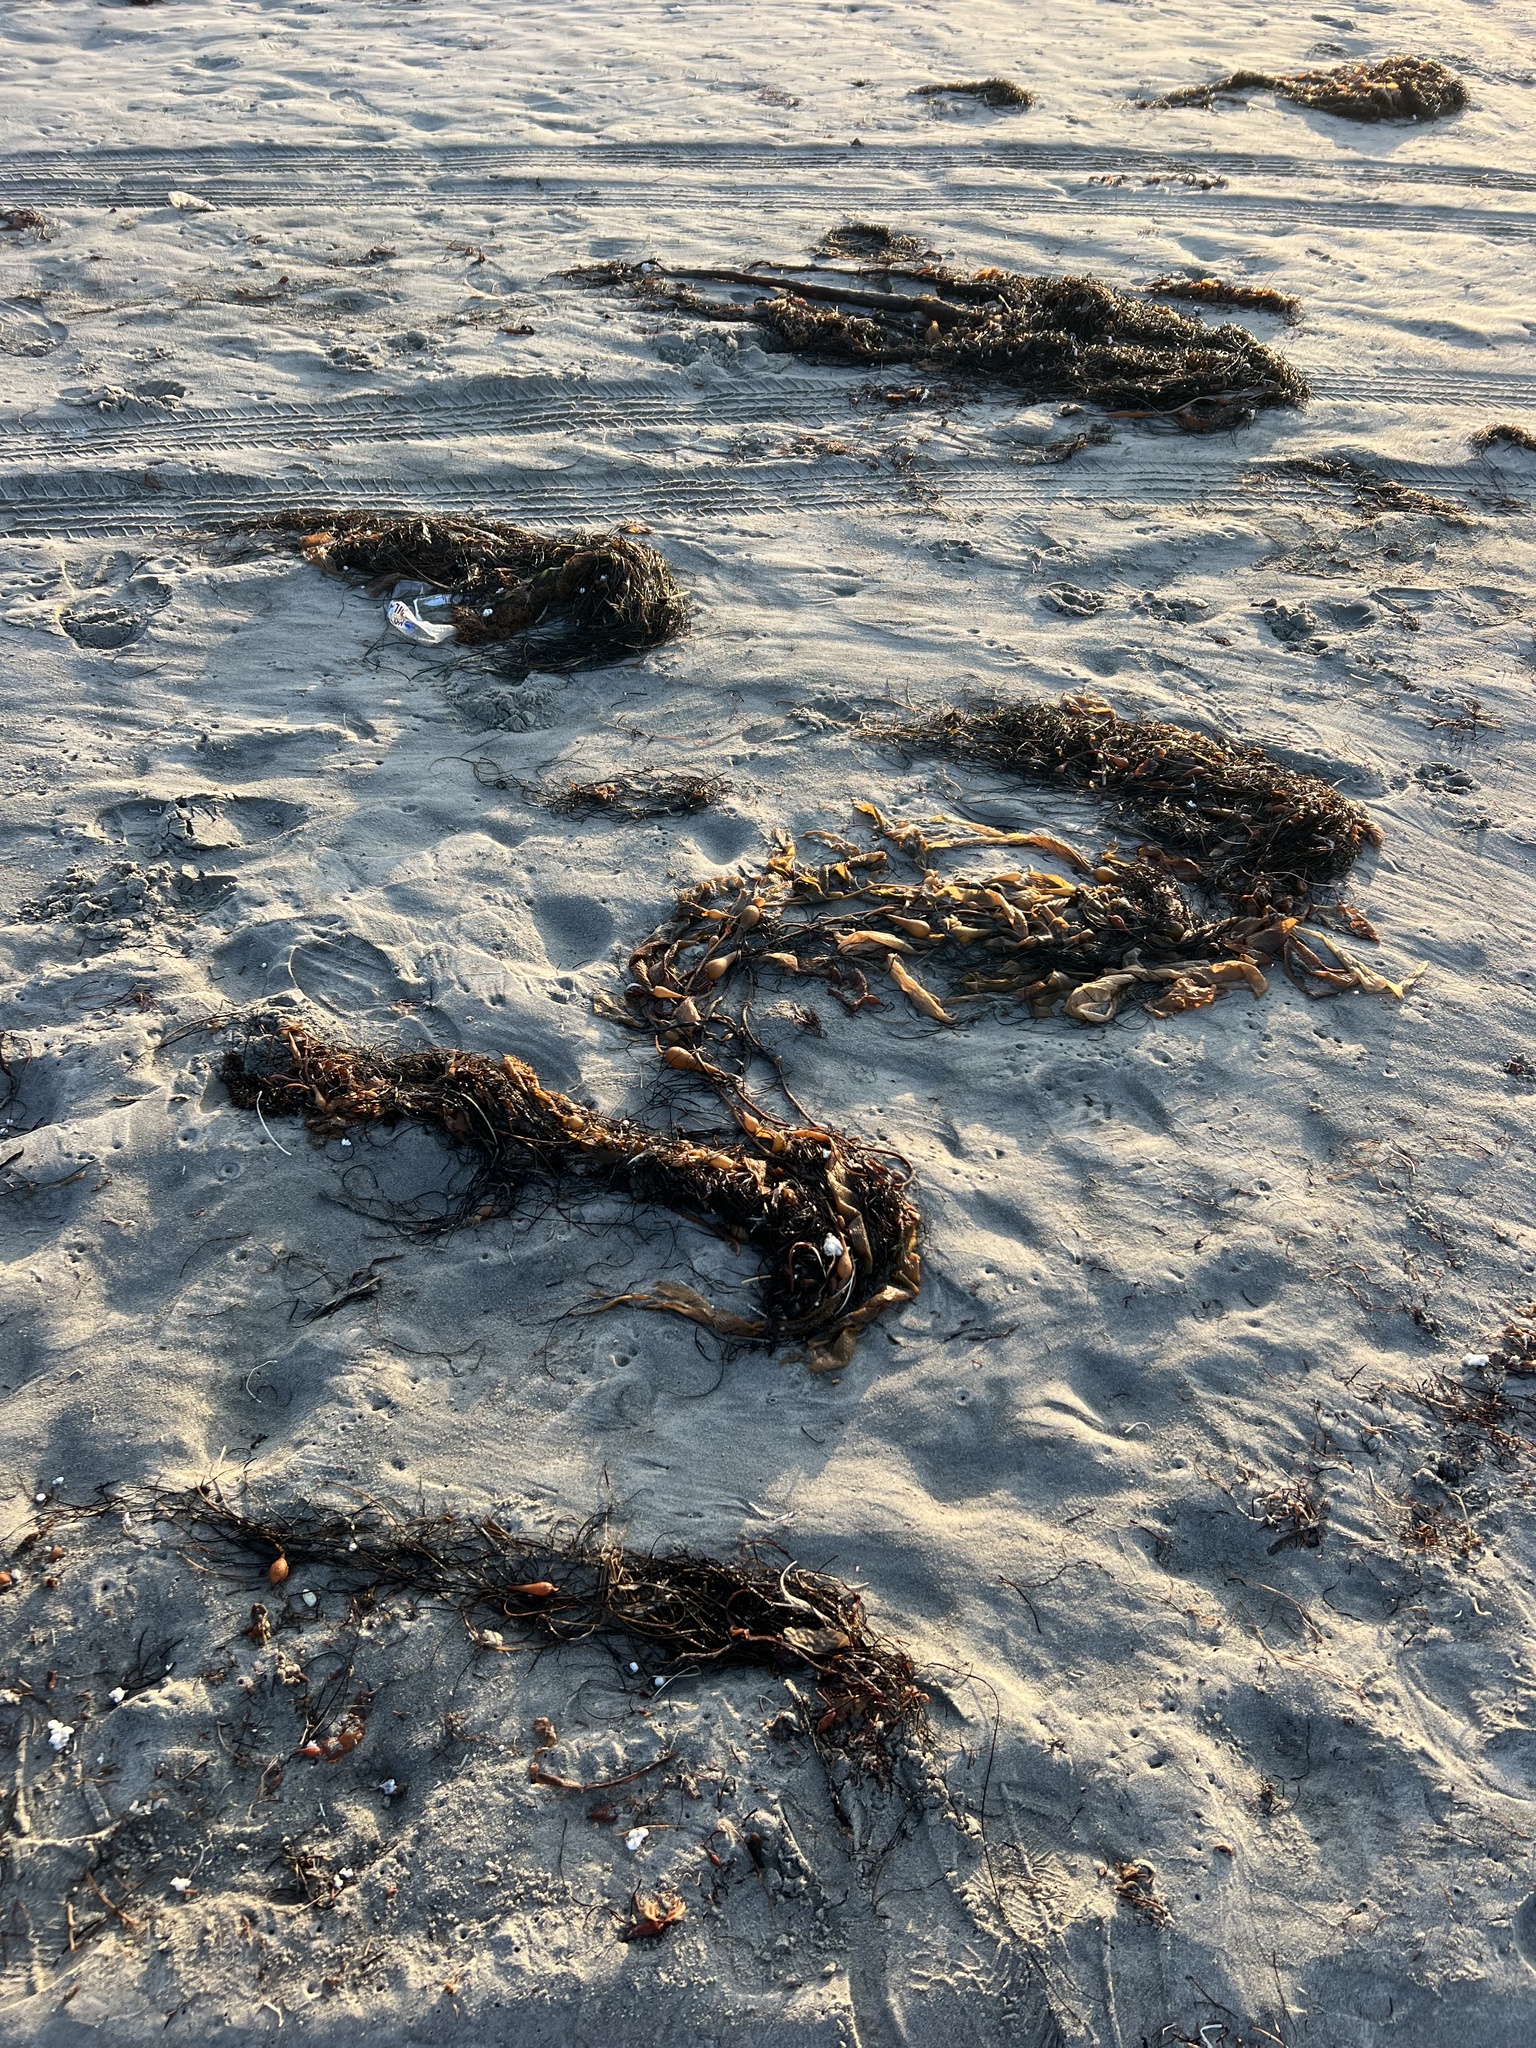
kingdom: Chromista
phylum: Ochrophyta
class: Phaeophyceae
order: Laminariales
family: Laminariaceae
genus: Macrocystis
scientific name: Macrocystis pyrifera
